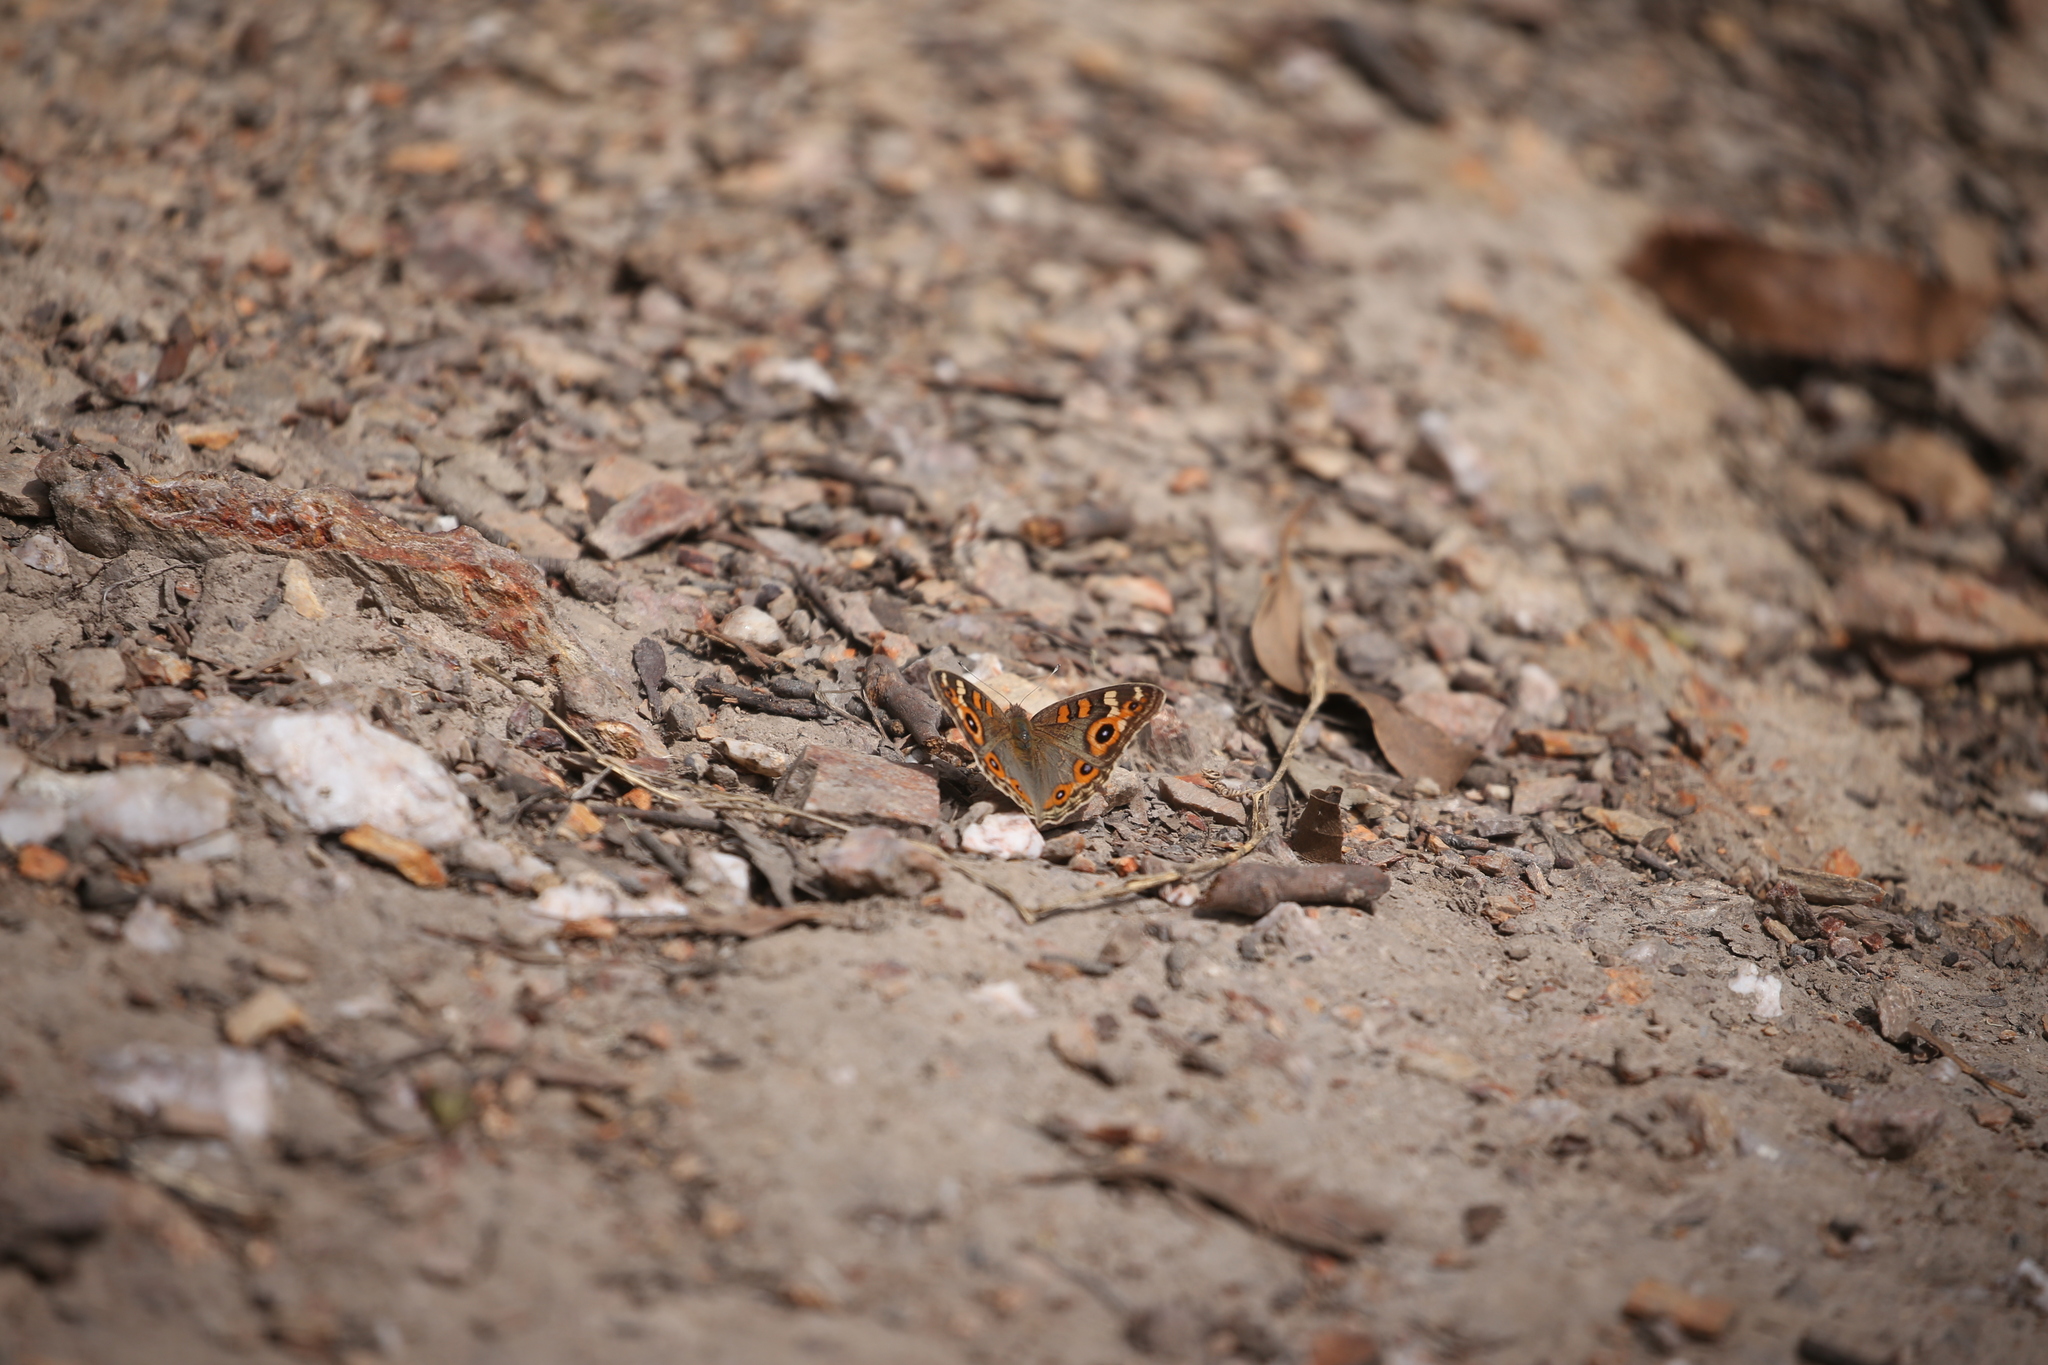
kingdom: Animalia
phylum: Arthropoda
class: Insecta
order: Lepidoptera
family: Nymphalidae
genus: Junonia
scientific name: Junonia villida
